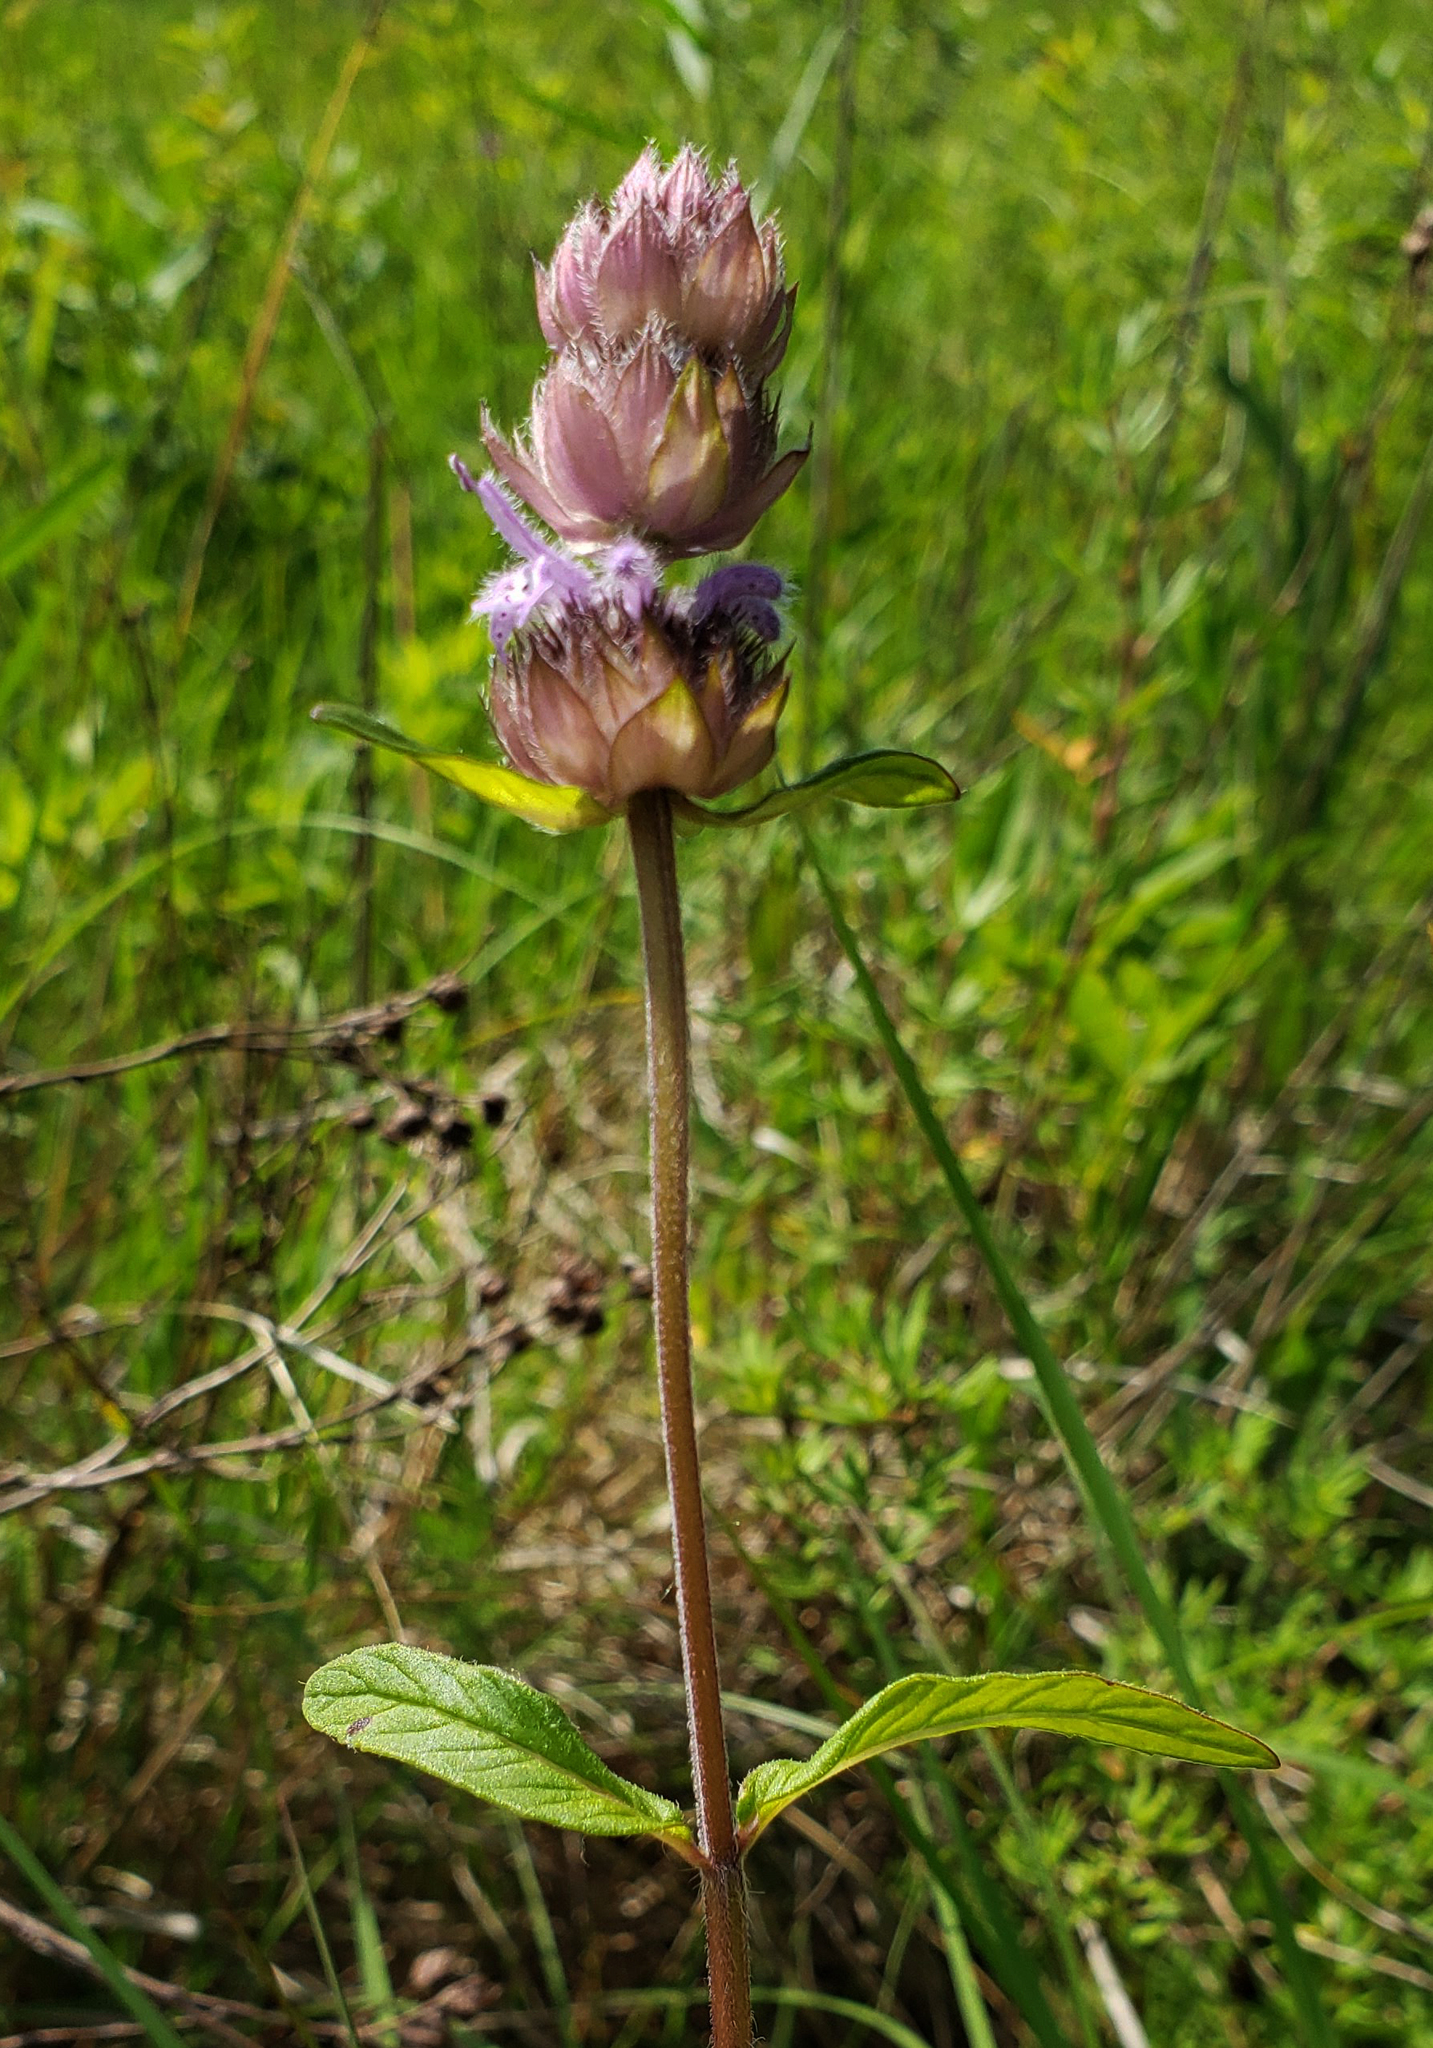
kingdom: Plantae
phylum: Tracheophyta
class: Magnoliopsida
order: Lamiales
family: Lamiaceae
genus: Blephilia
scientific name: Blephilia ciliata
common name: Downy blephilia
